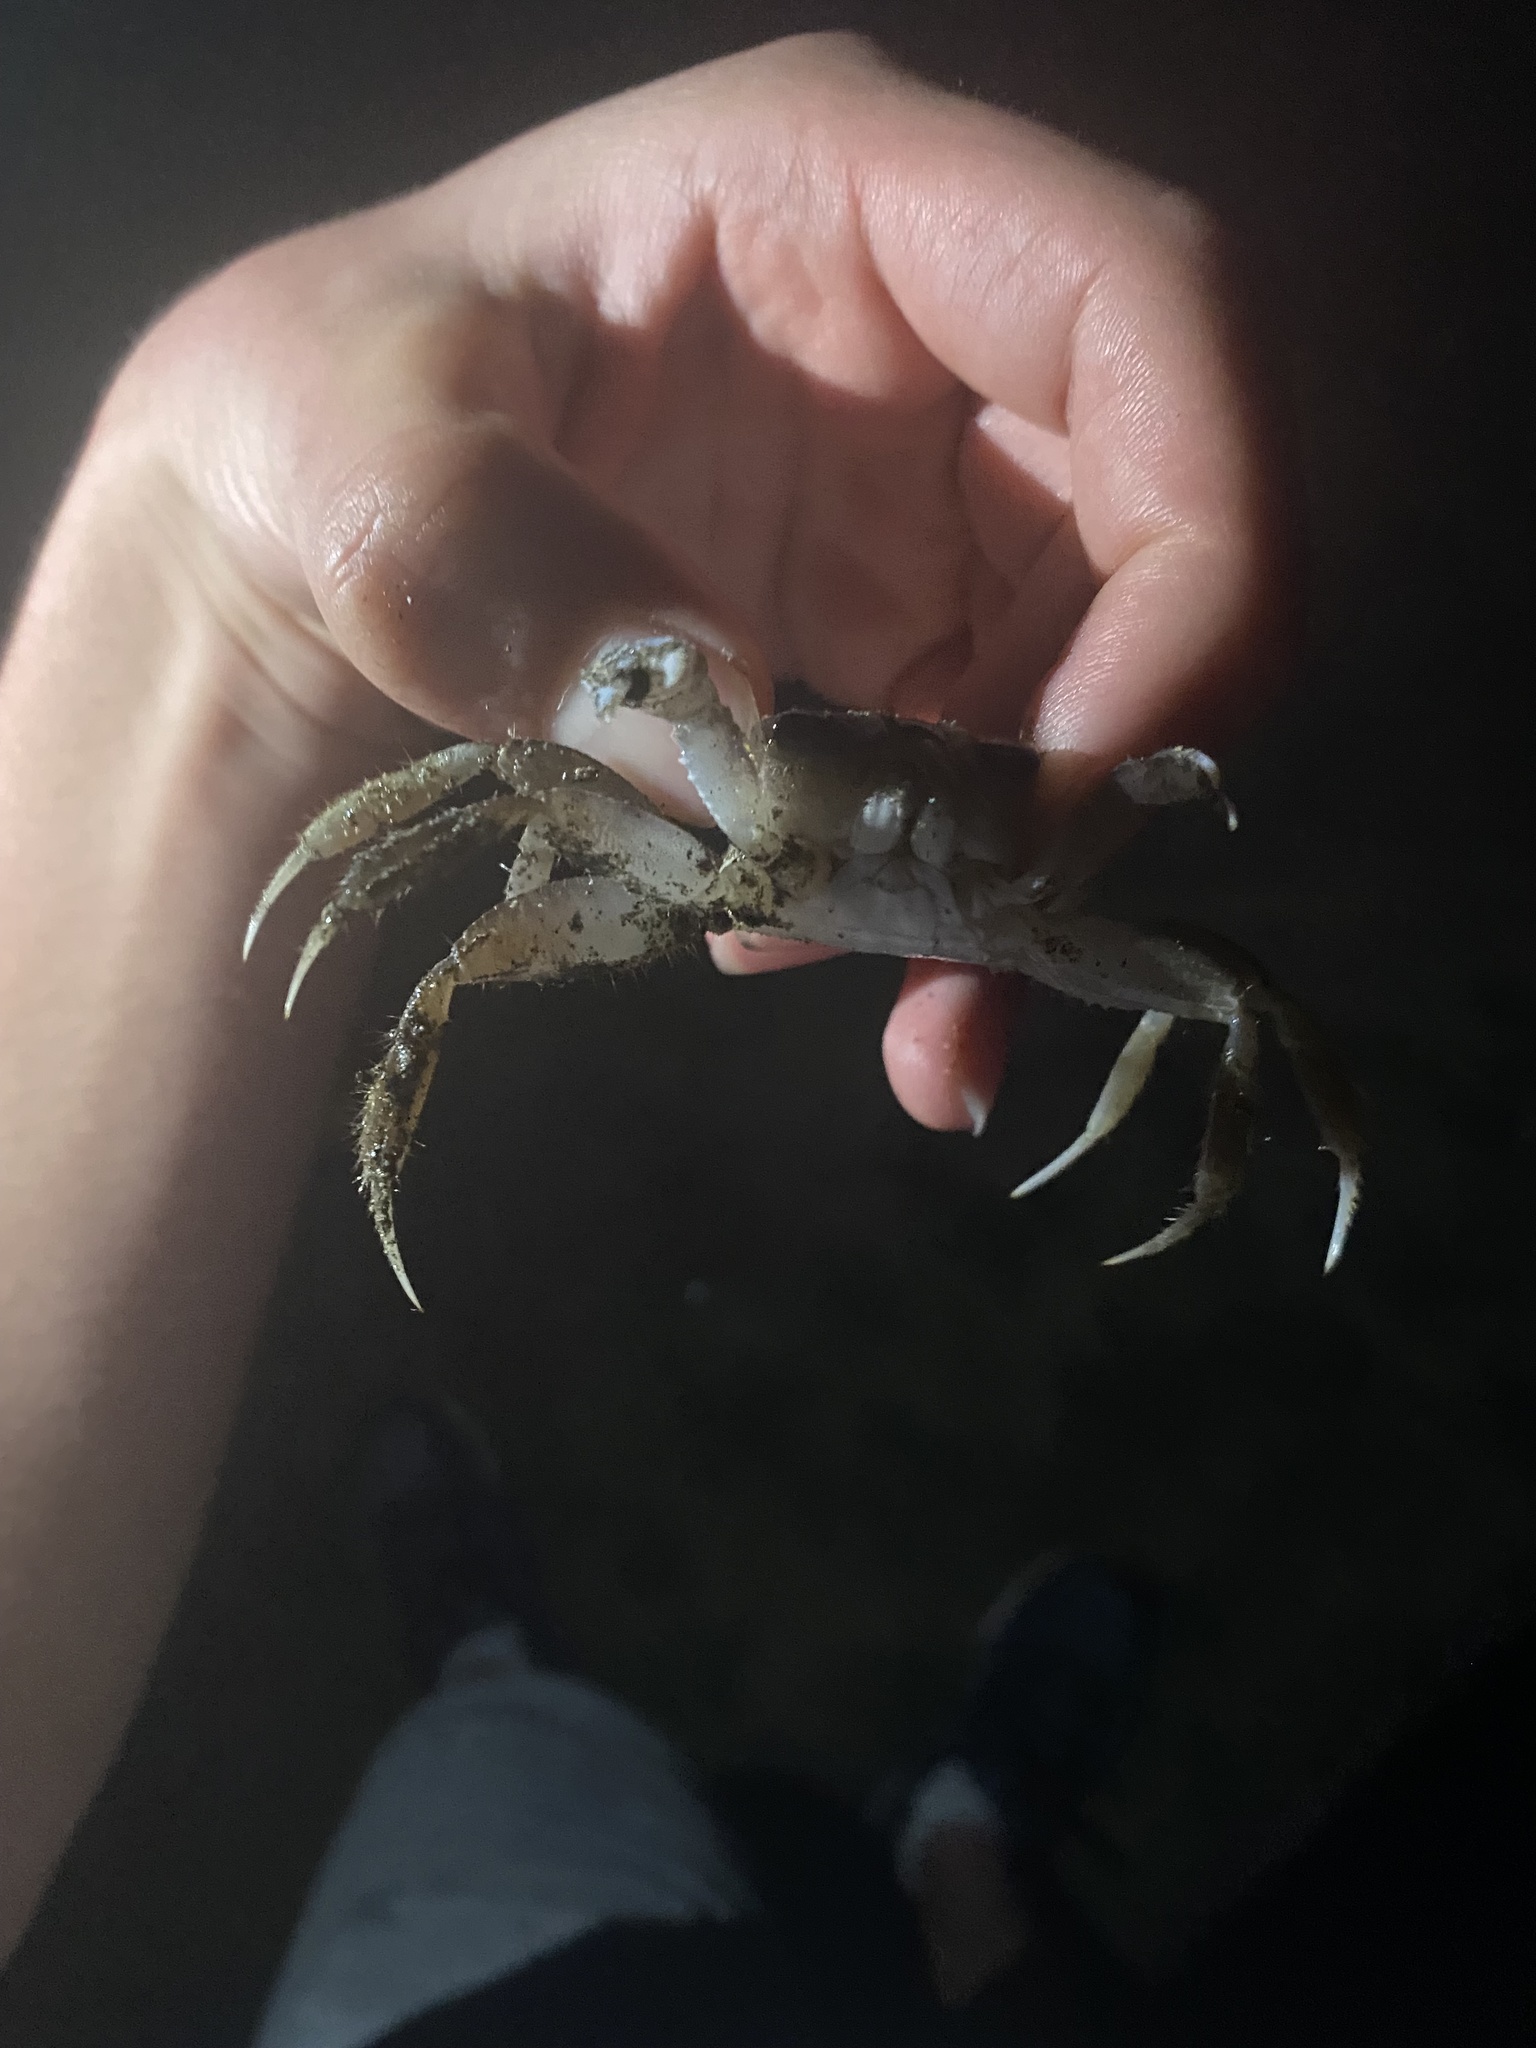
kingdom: Animalia
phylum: Arthropoda
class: Malacostraca
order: Decapoda
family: Ocypodidae
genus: Ocypode
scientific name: Ocypode quadrata
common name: Ghost crab
